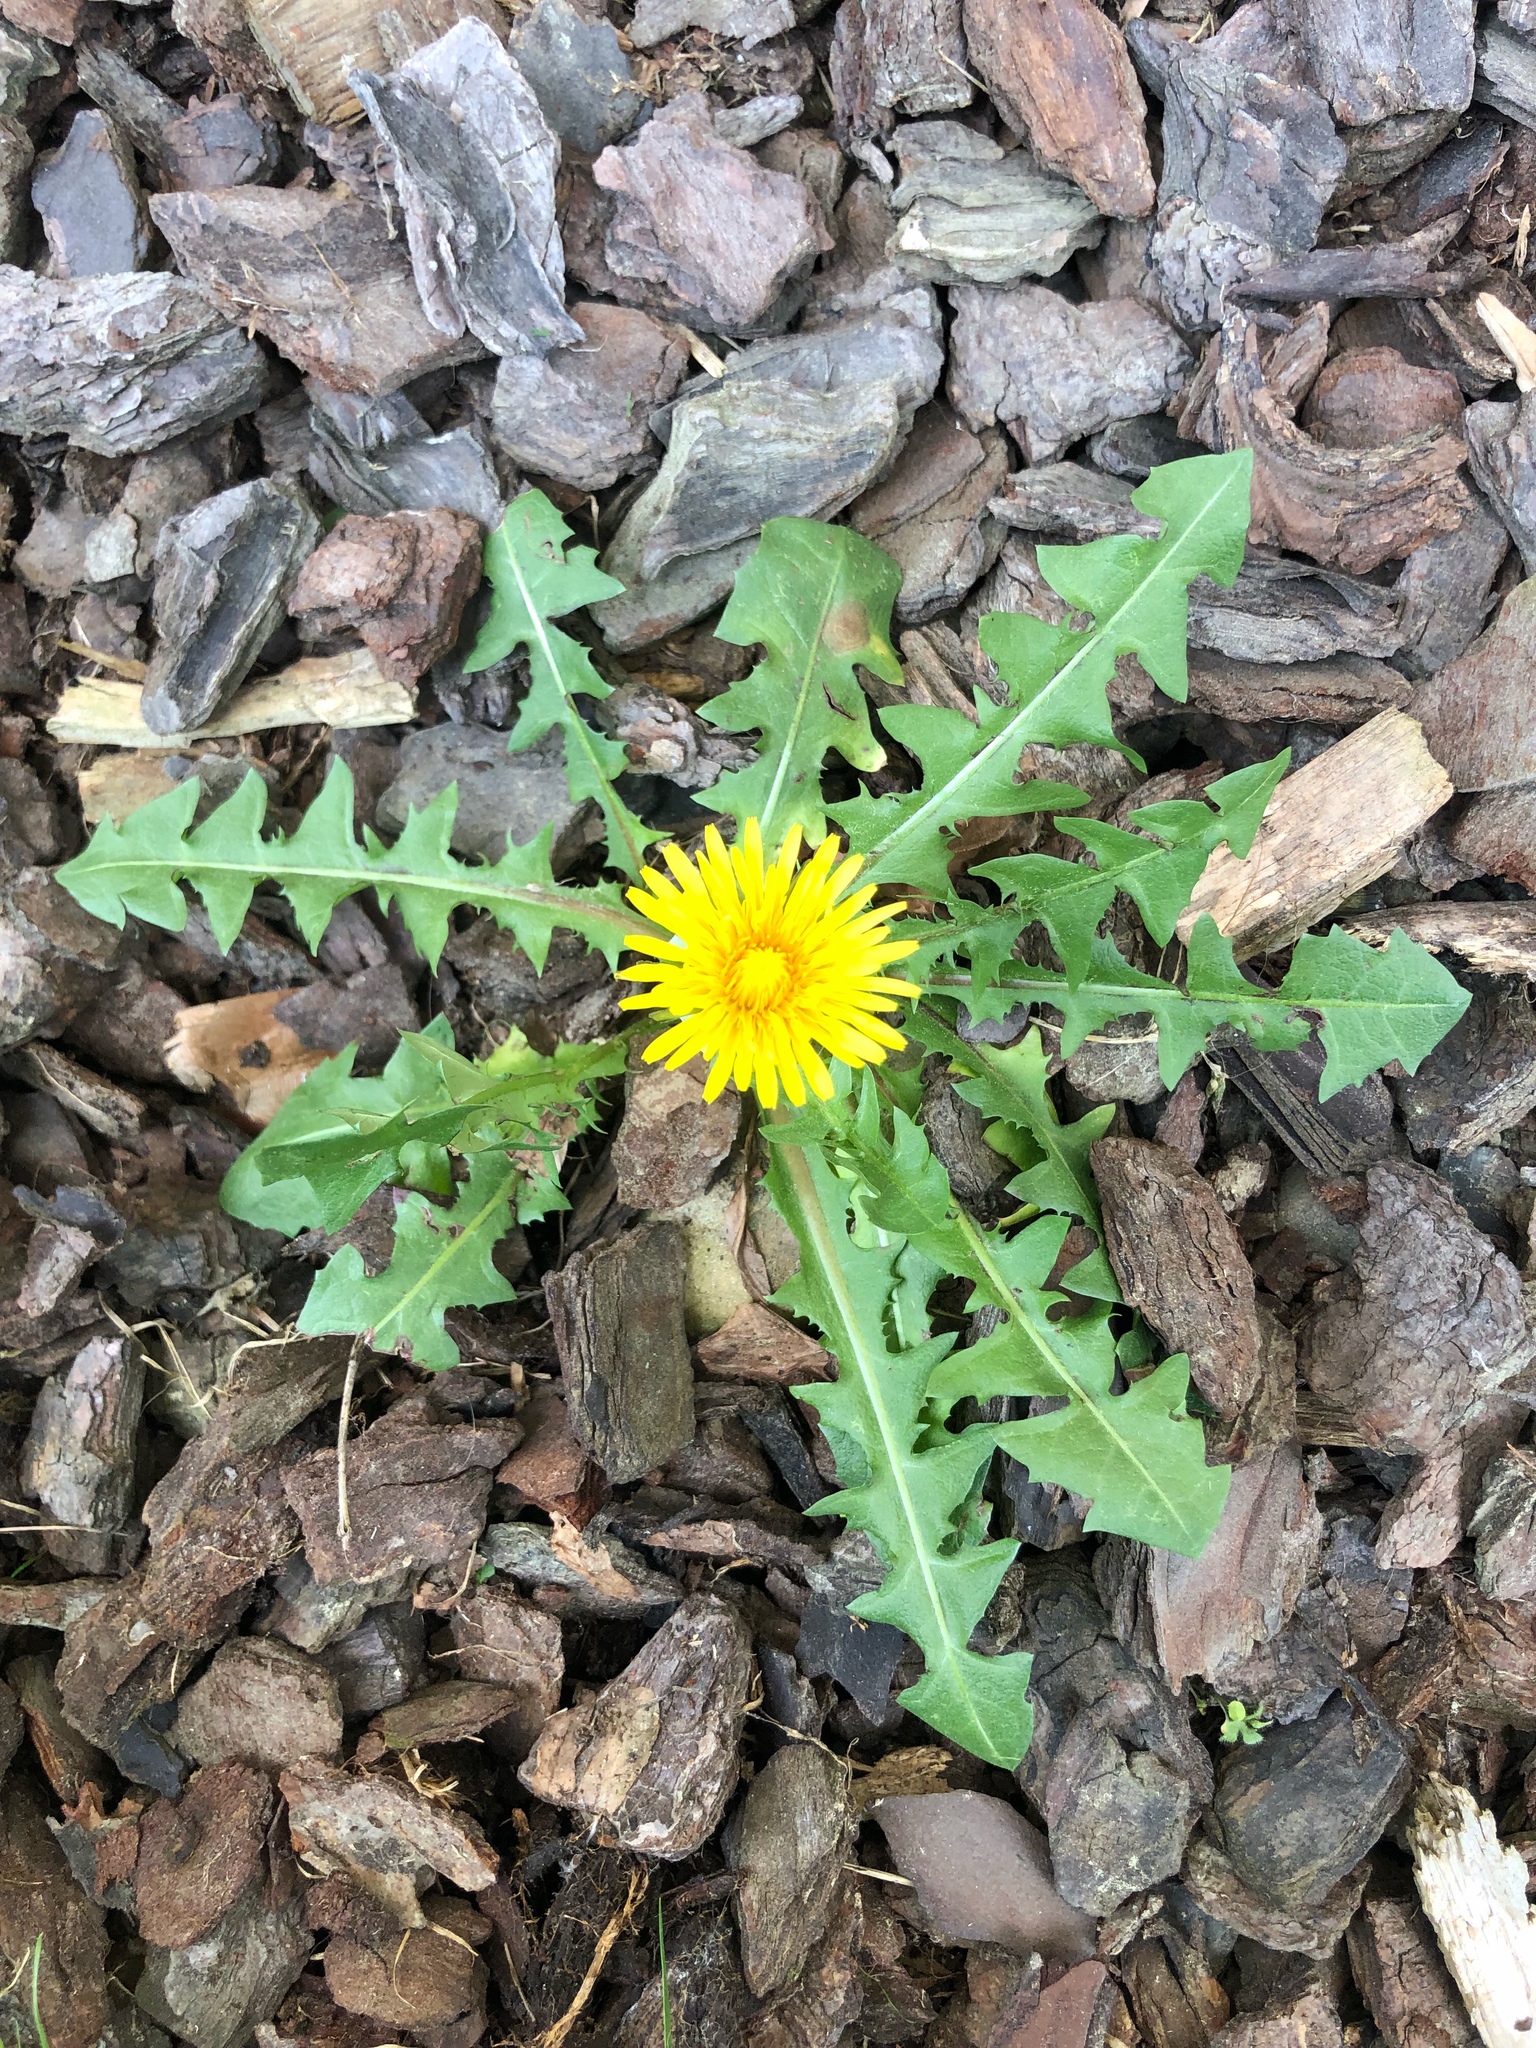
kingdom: Plantae
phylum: Tracheophyta
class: Magnoliopsida
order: Asterales
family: Asteraceae
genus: Taraxacum
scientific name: Taraxacum officinale
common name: Common dandelion
